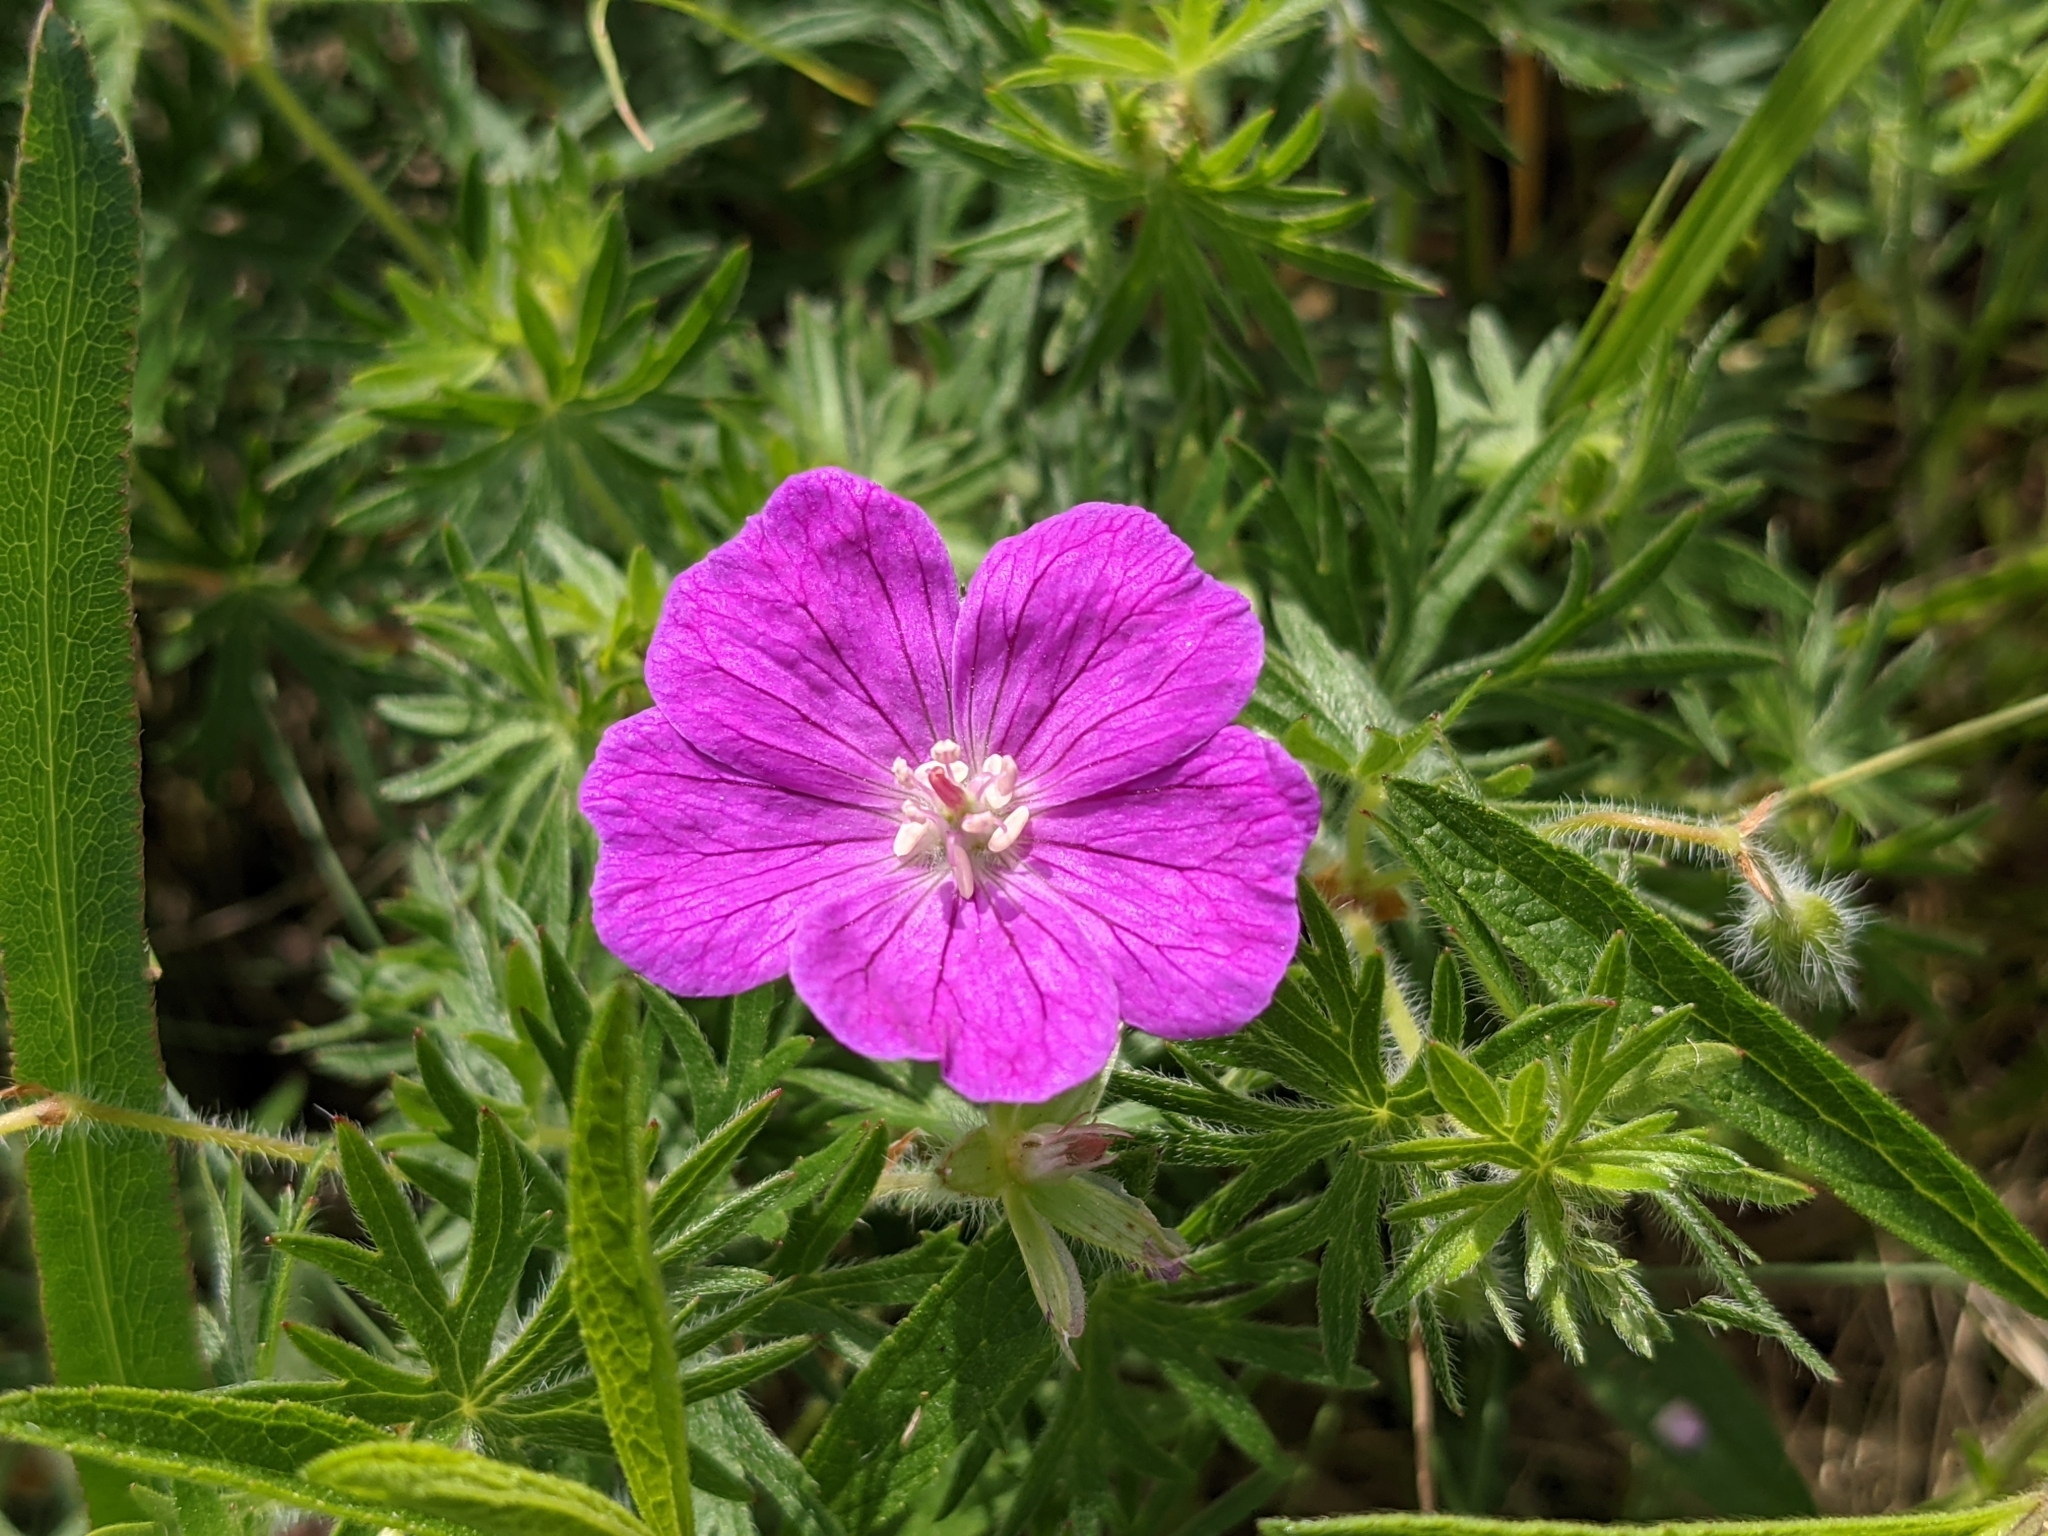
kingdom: Plantae
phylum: Tracheophyta
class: Magnoliopsida
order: Geraniales
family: Geraniaceae
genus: Geranium
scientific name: Geranium sanguineum
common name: Bloody crane's-bill
